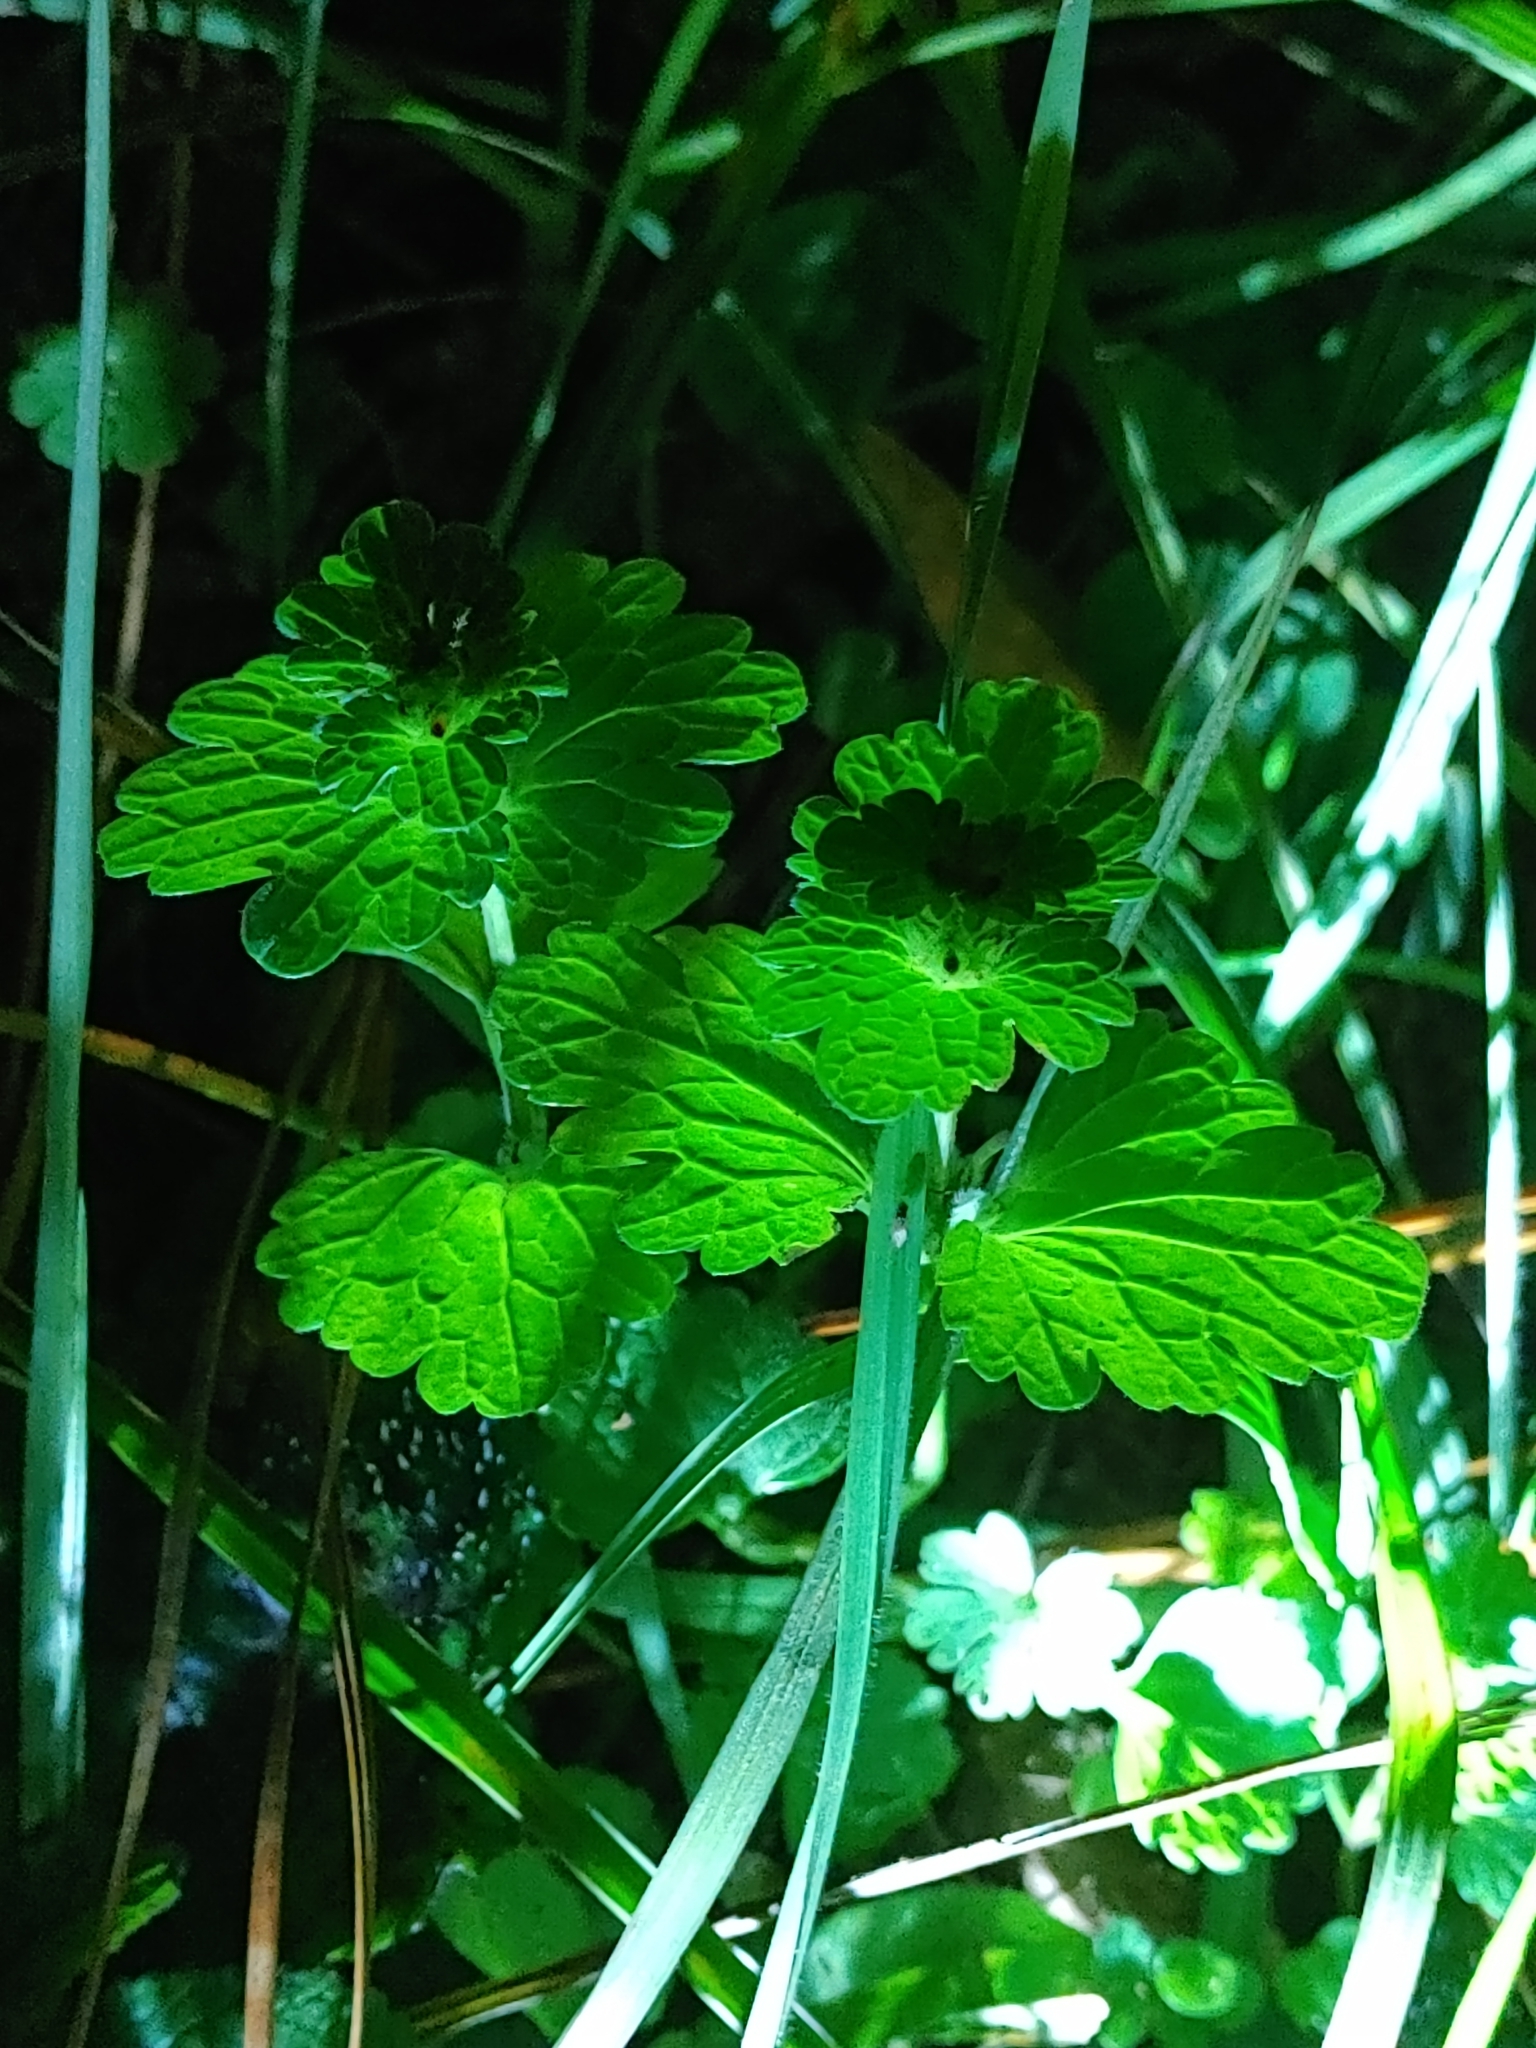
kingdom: Plantae
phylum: Tracheophyta
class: Magnoliopsida
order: Lamiales
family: Lamiaceae
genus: Lamium
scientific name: Lamium amplexicaule
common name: Henbit dead-nettle
